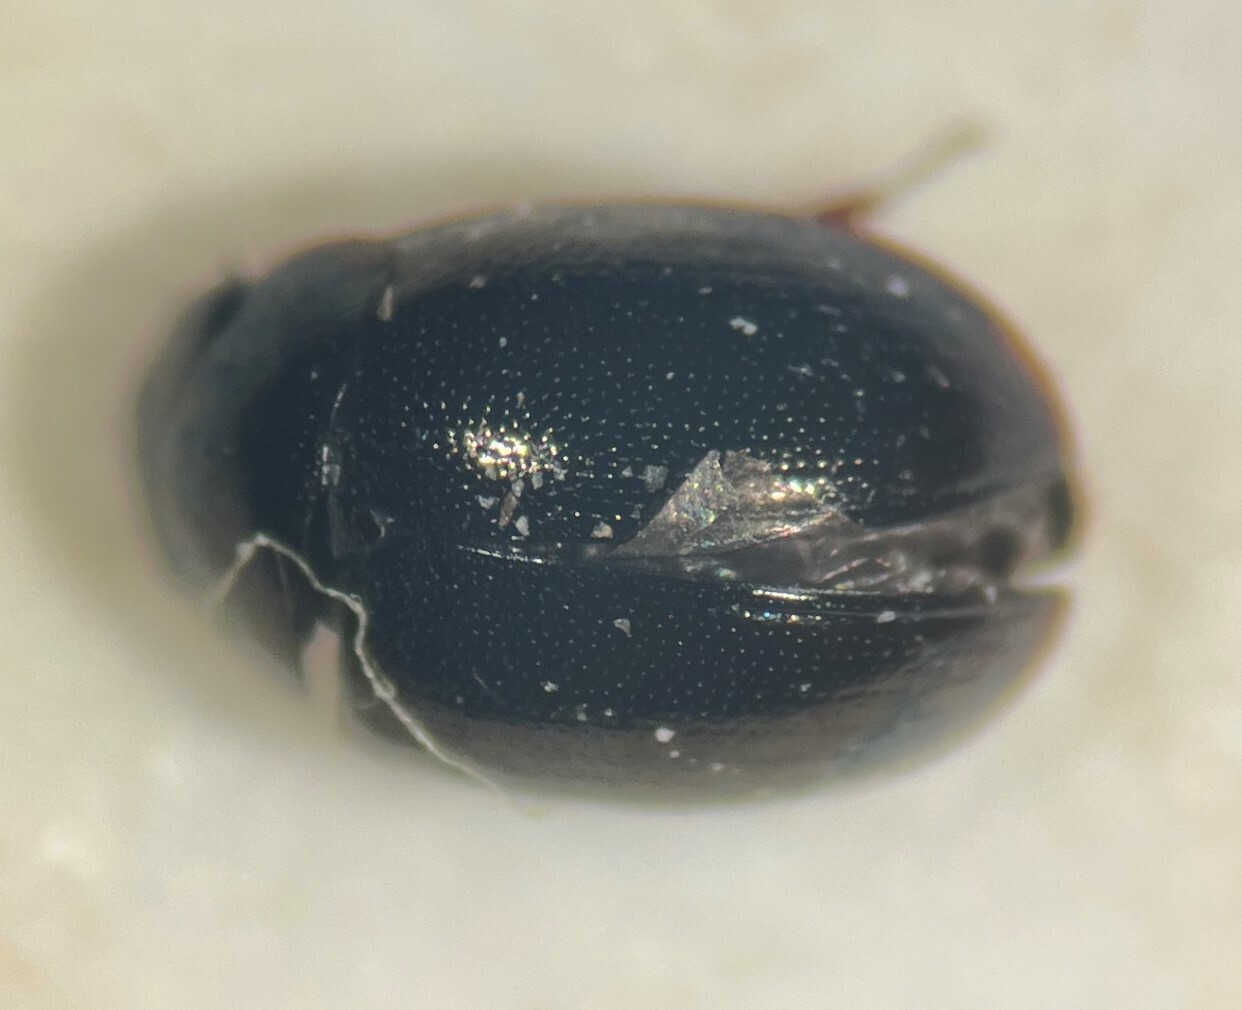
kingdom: Animalia
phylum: Arthropoda
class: Insecta
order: Coleoptera
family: Hydrophilidae
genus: Crenitis
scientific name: Crenitis digesta
